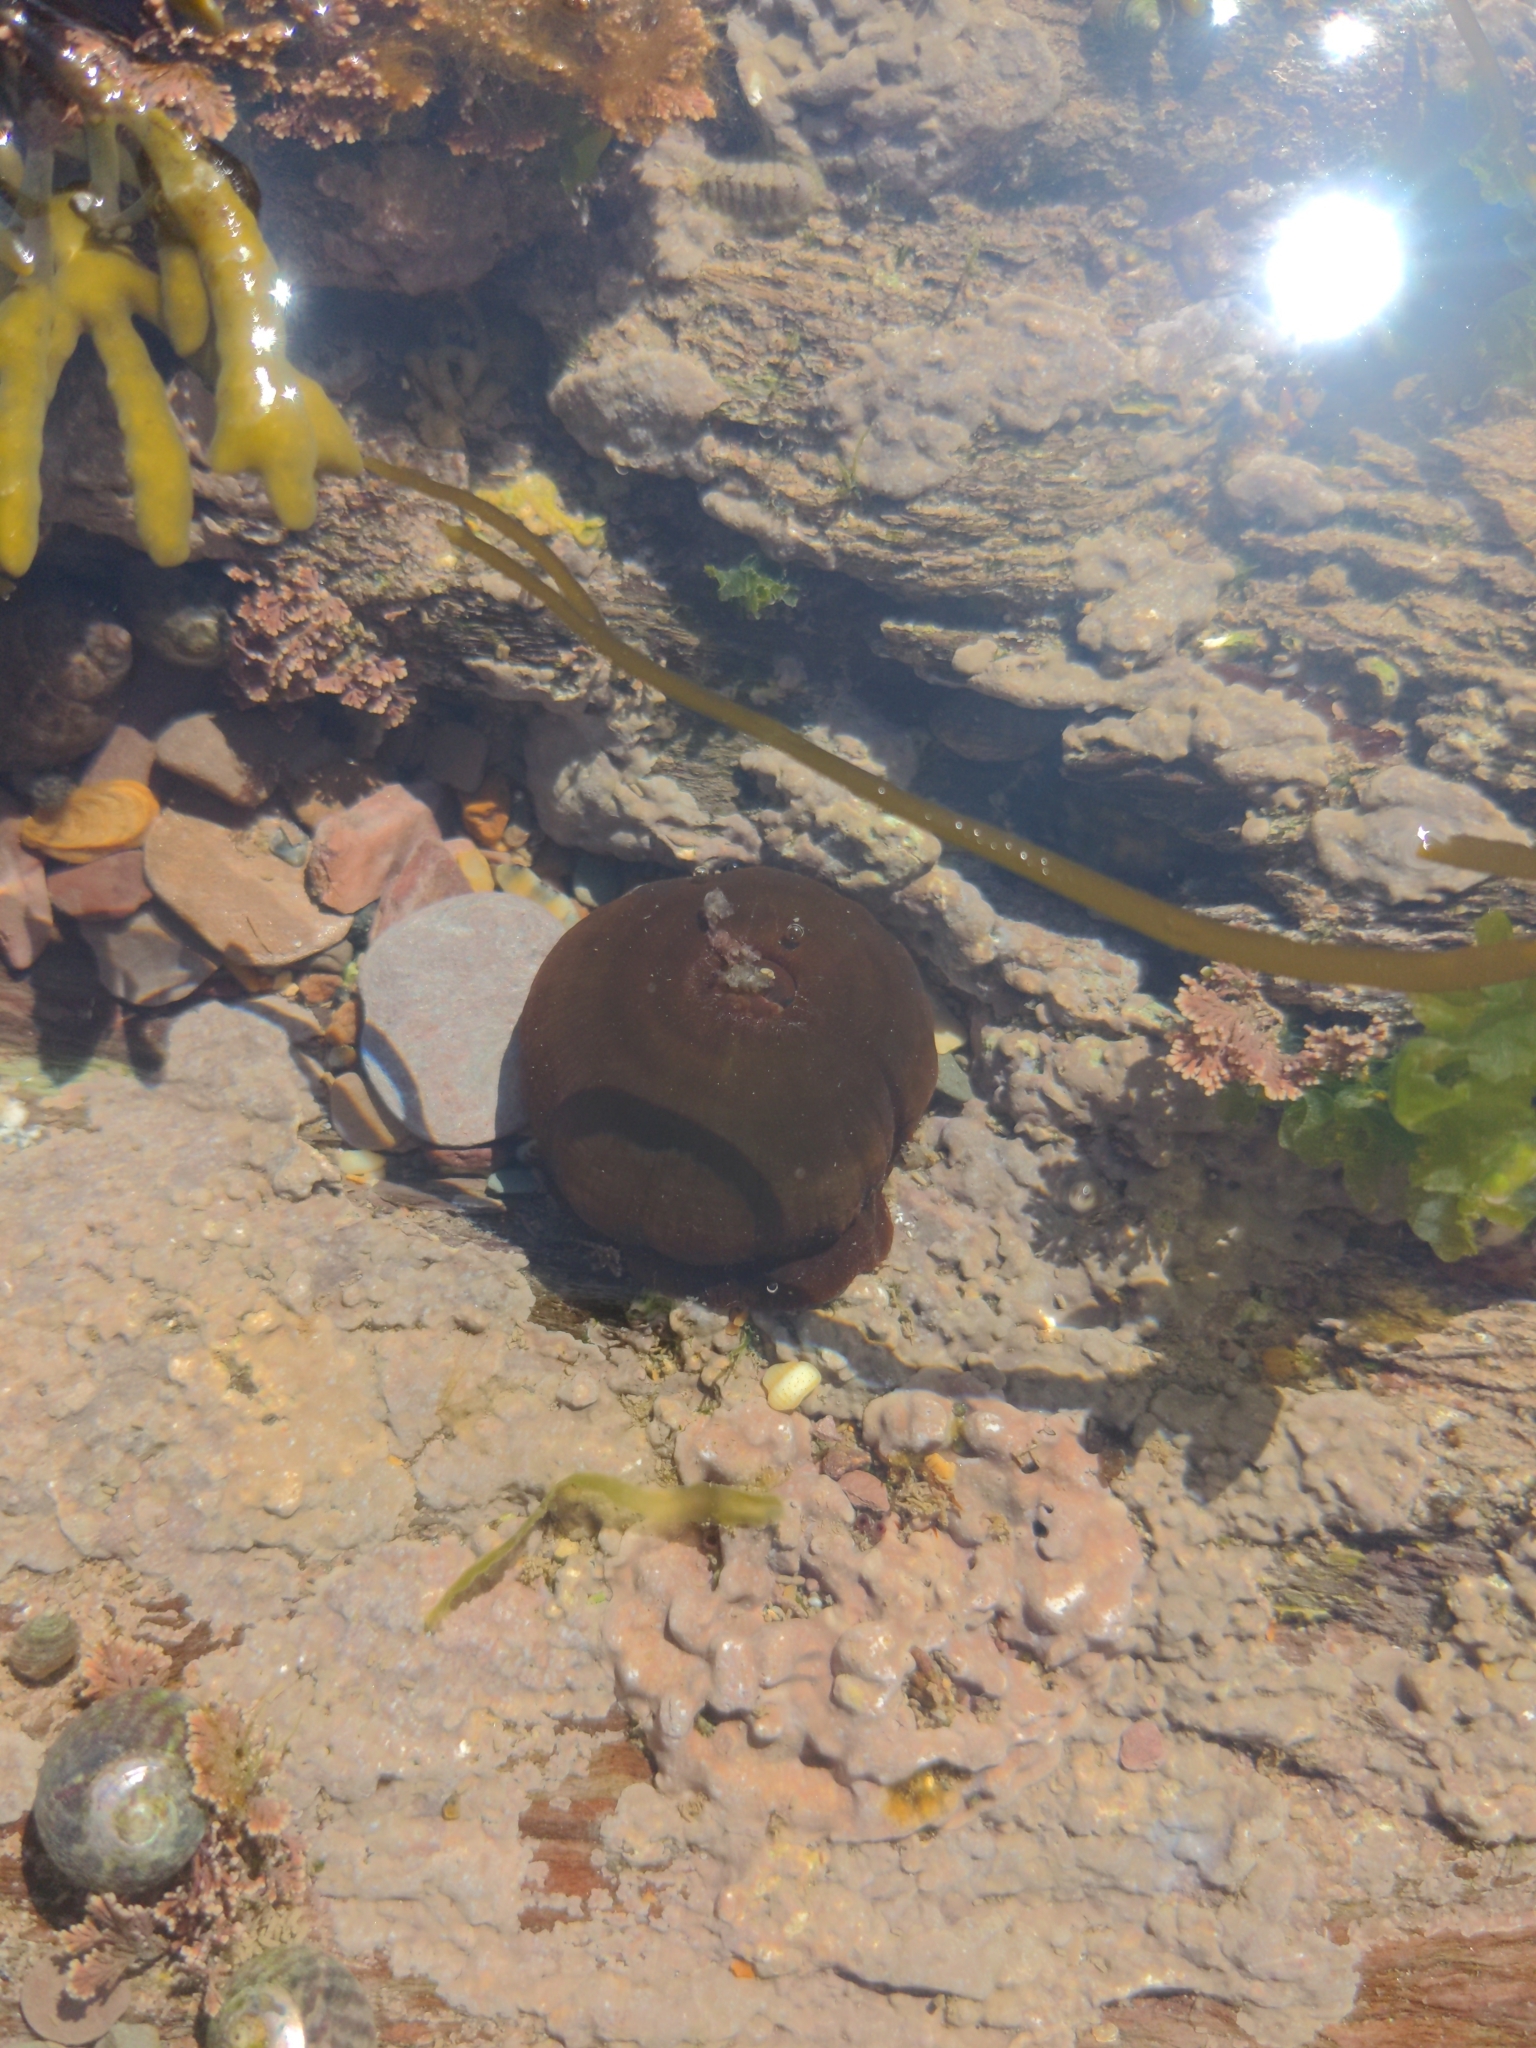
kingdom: Animalia
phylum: Cnidaria
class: Anthozoa
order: Actiniaria
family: Actiniidae
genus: Actinia
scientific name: Actinia equina
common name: Beadlet anemone
